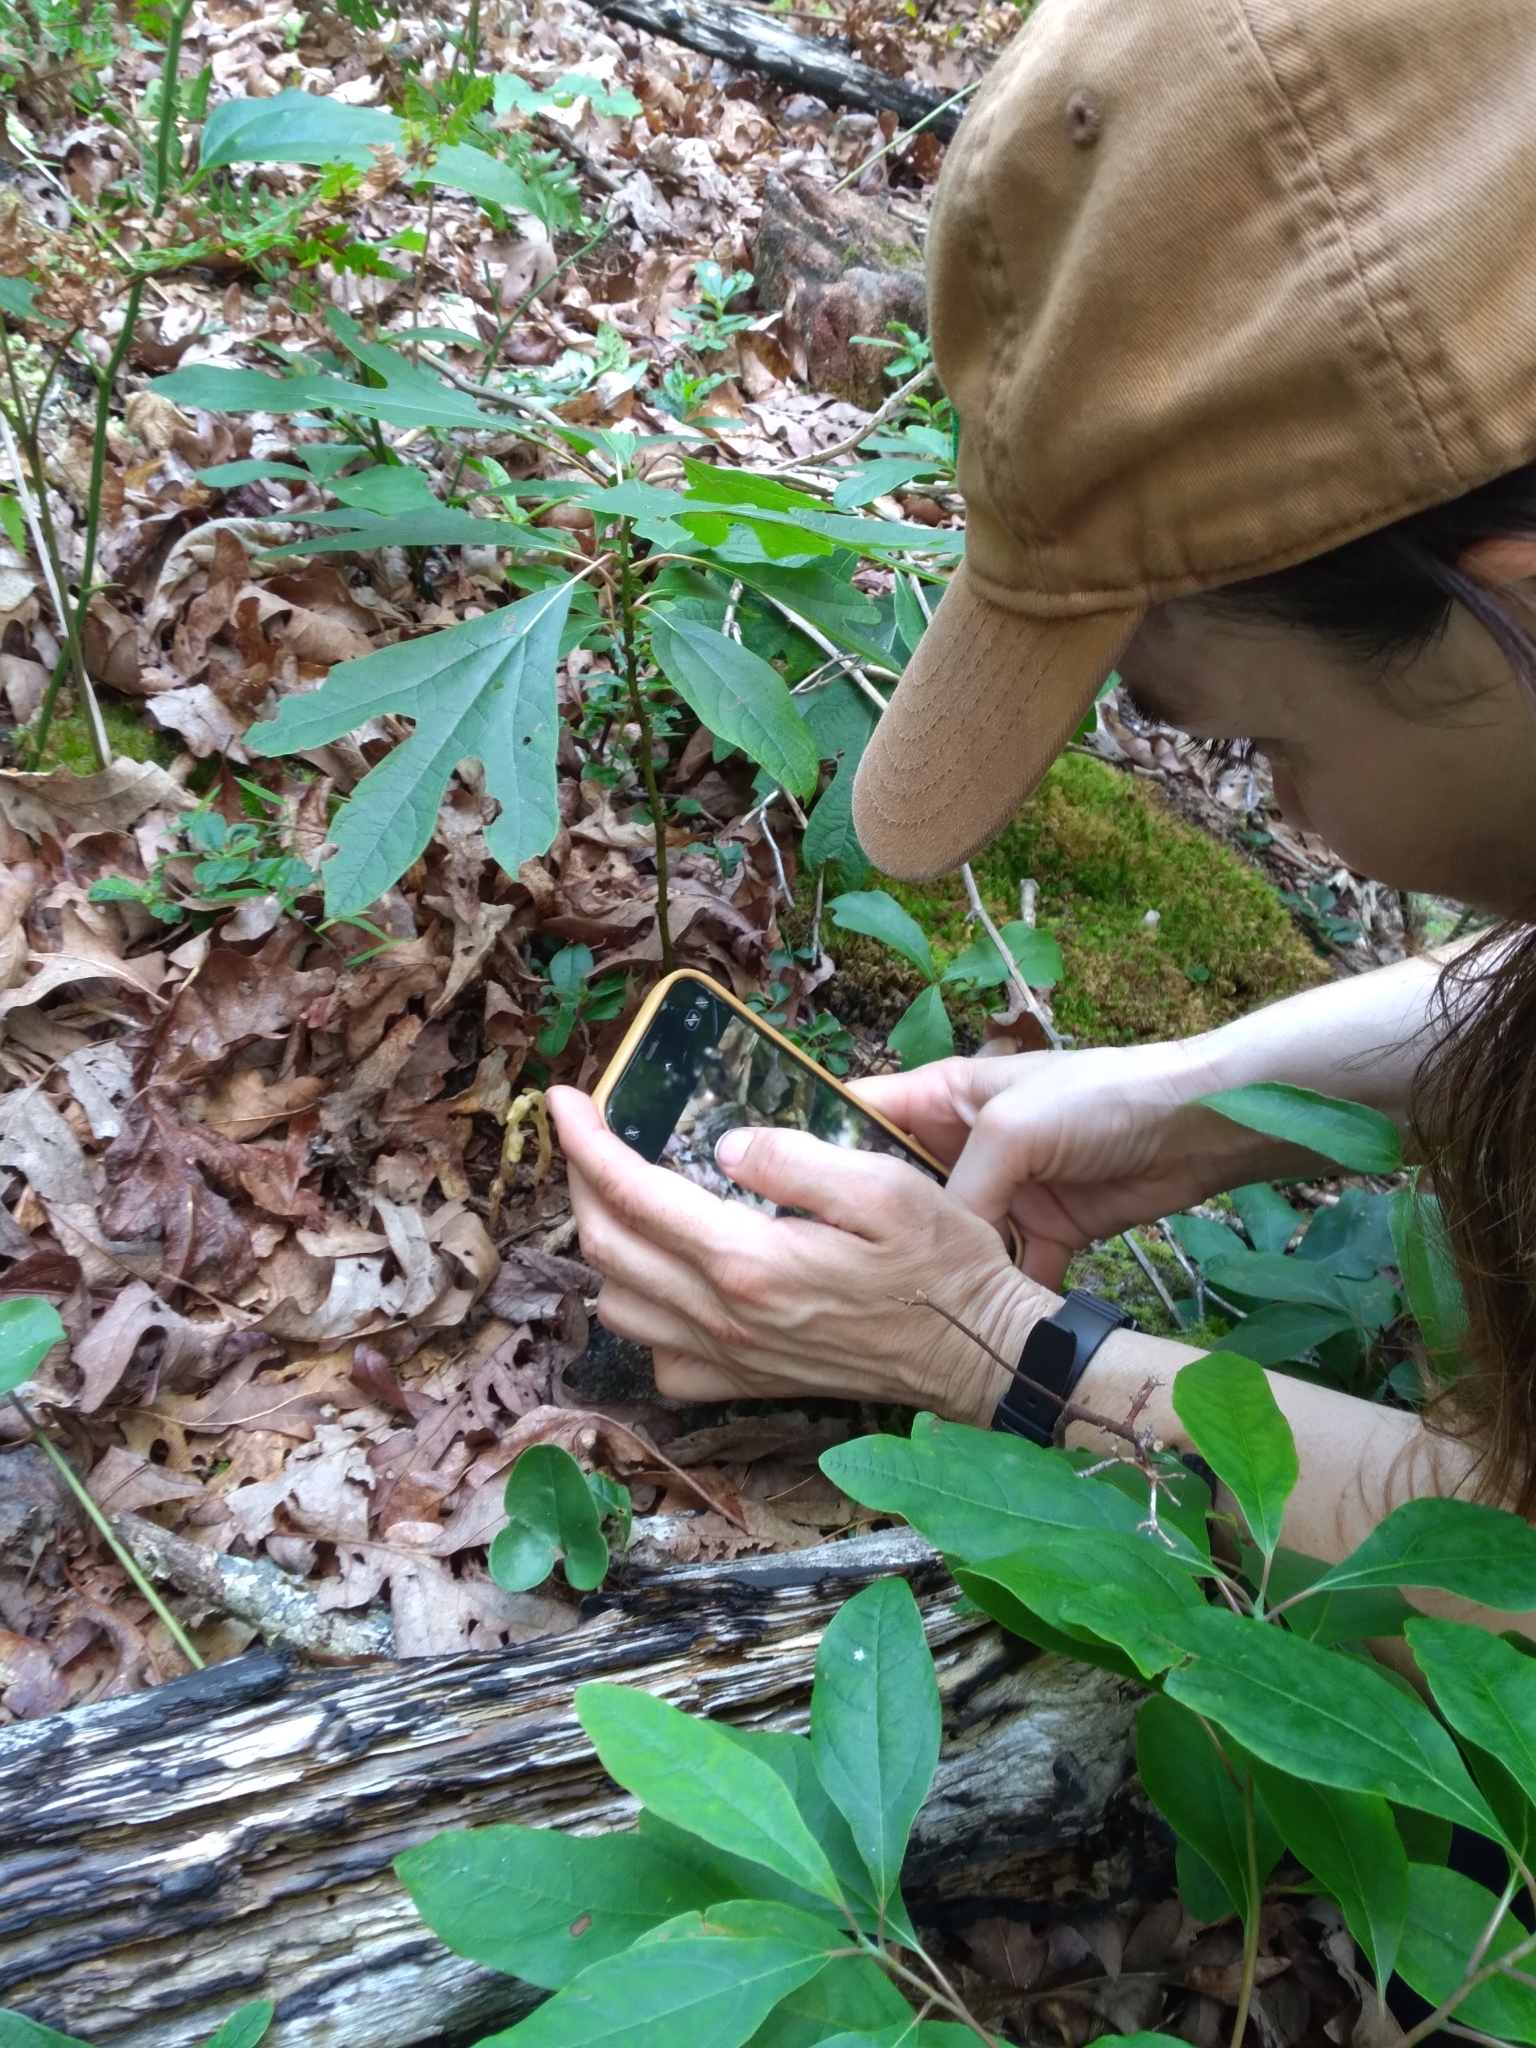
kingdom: Plantae
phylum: Tracheophyta
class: Magnoliopsida
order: Ericales
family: Ericaceae
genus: Hypopitys
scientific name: Hypopitys monotropa
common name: Yellow bird's-nest
